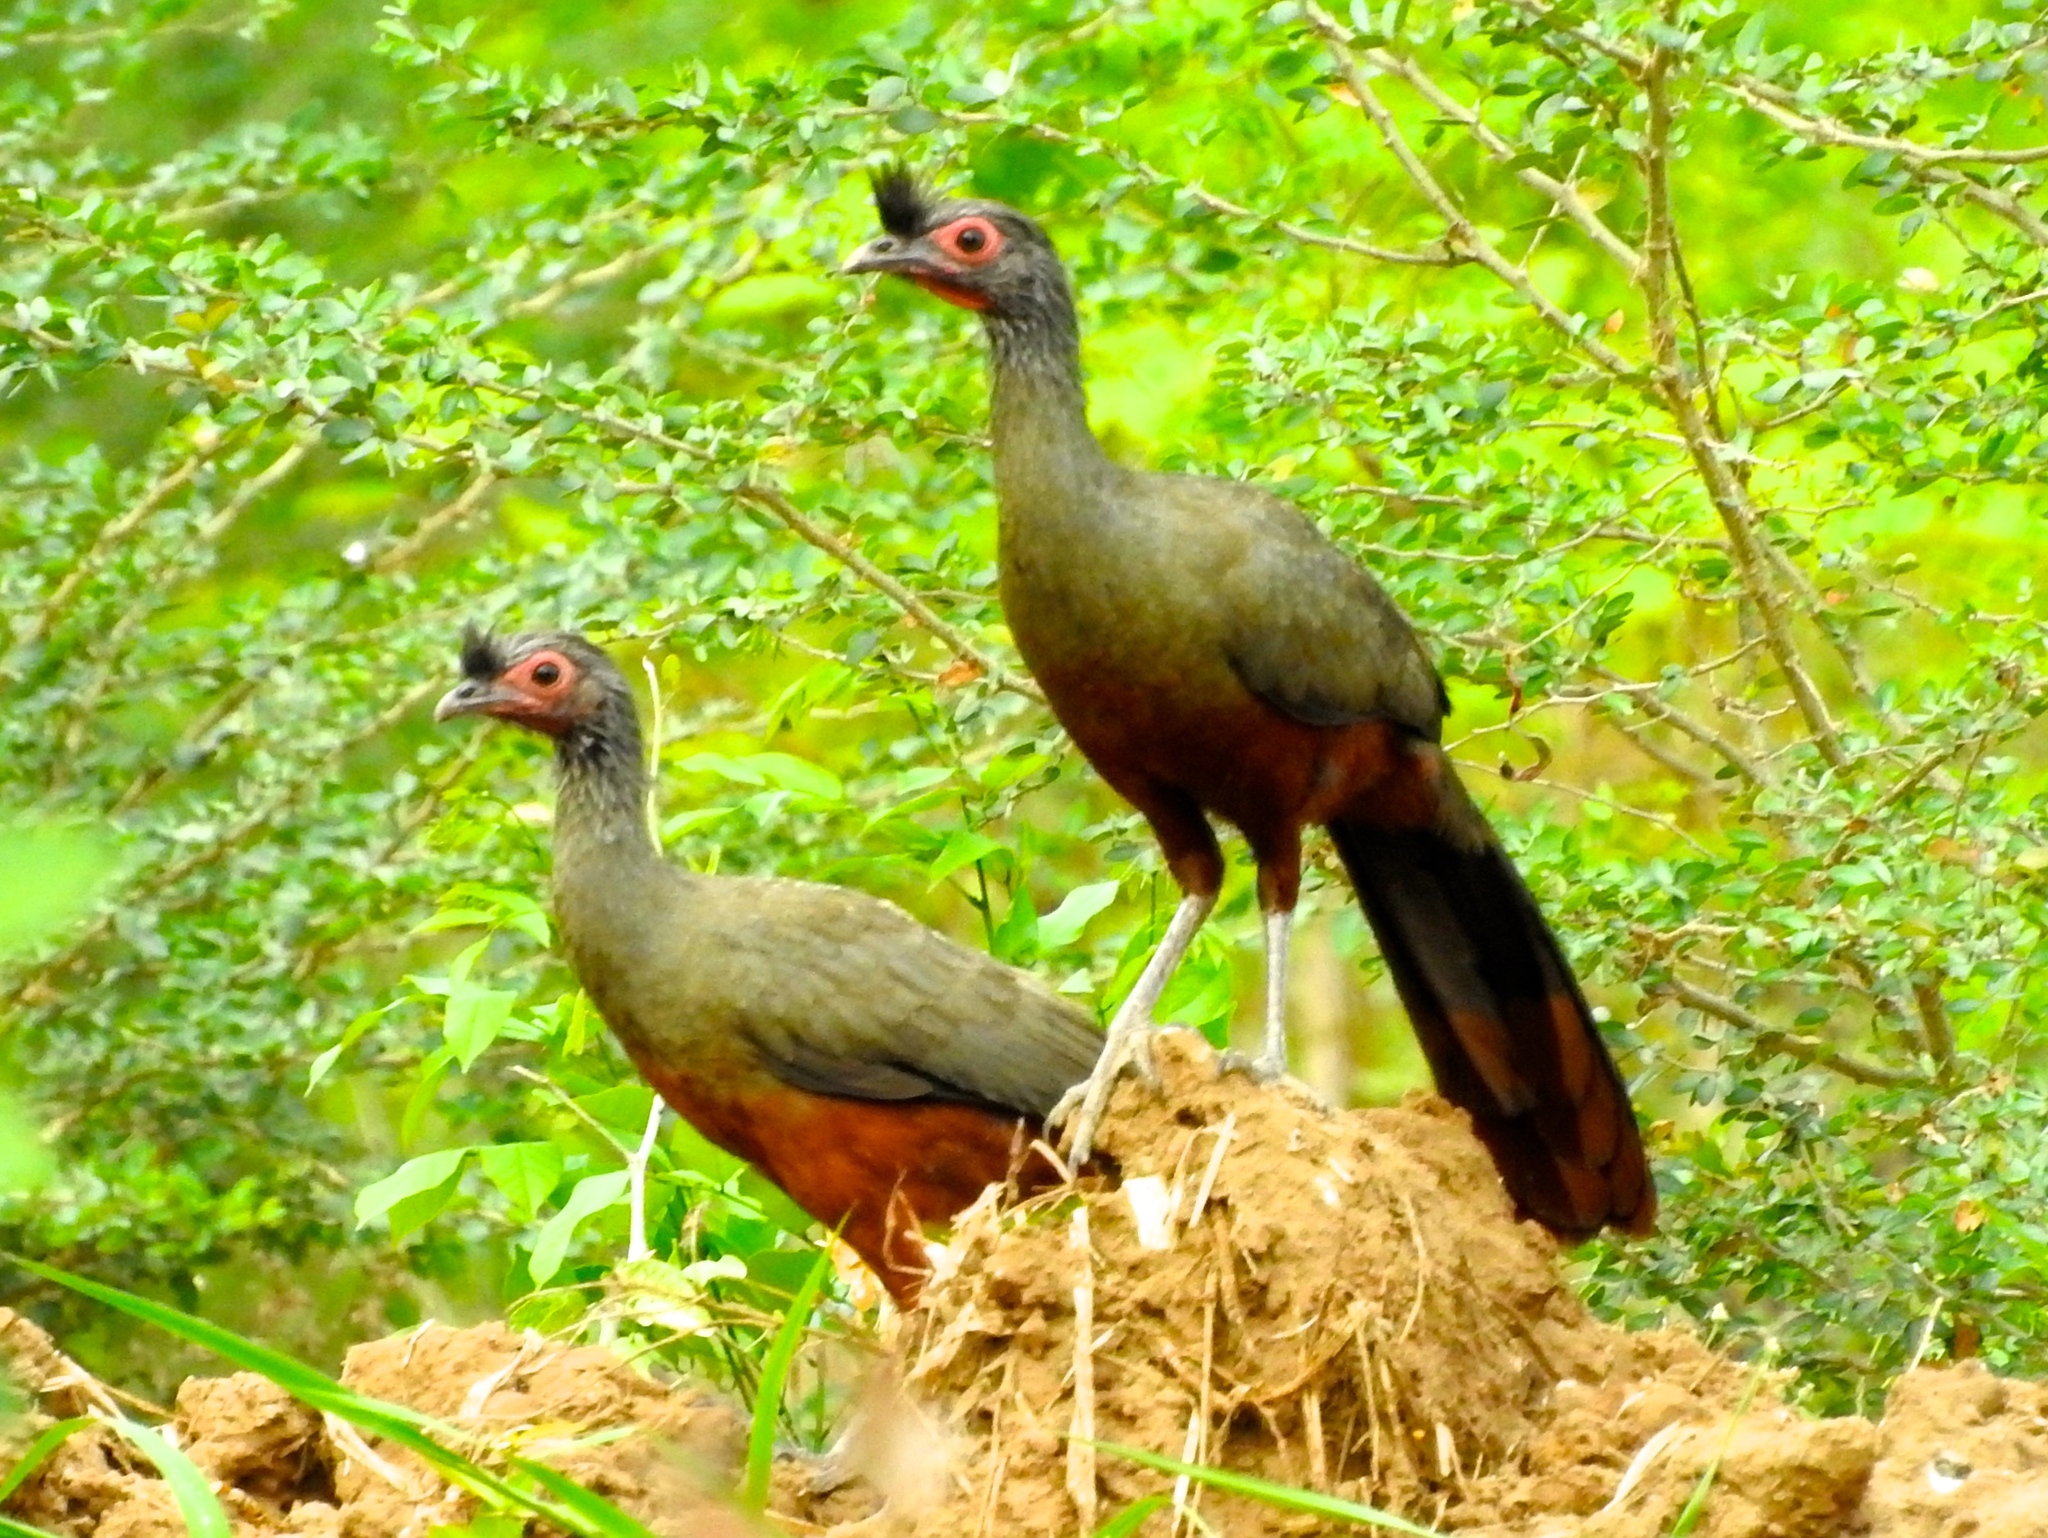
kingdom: Animalia
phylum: Chordata
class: Aves
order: Galliformes
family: Cracidae
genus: Ortalis
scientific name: Ortalis wagleri
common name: Rufous-bellied chachalaca
